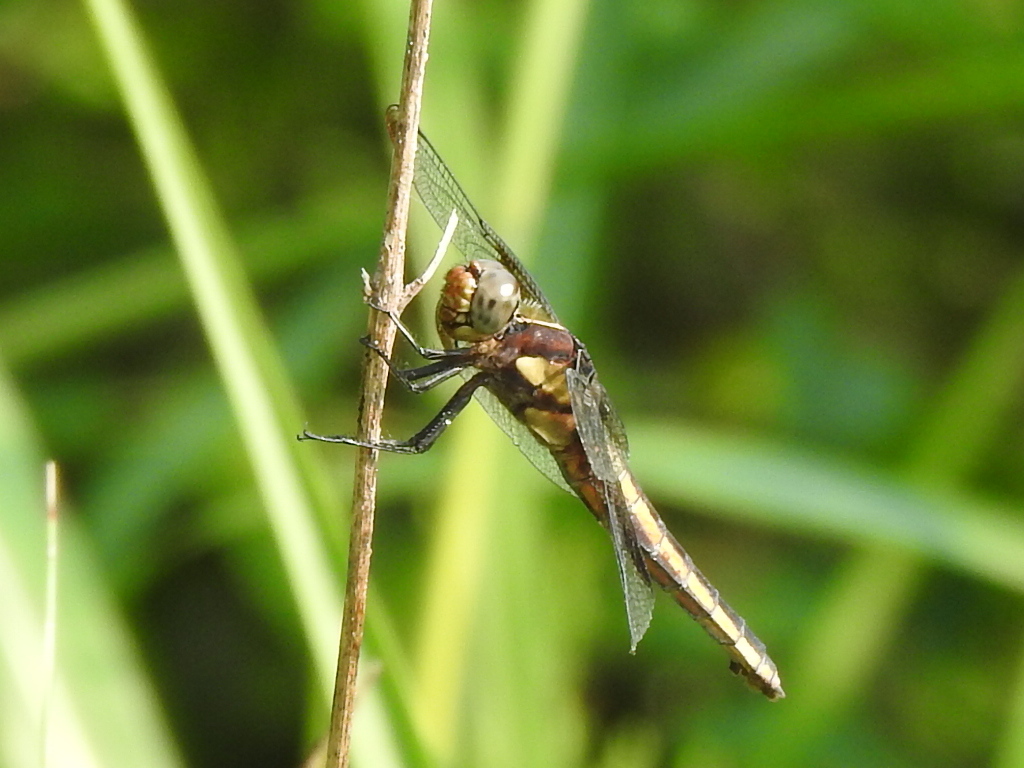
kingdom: Animalia
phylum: Arthropoda
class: Insecta
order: Odonata
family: Libellulidae
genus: Libellula
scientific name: Libellula luctuosa
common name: Widow skimmer
